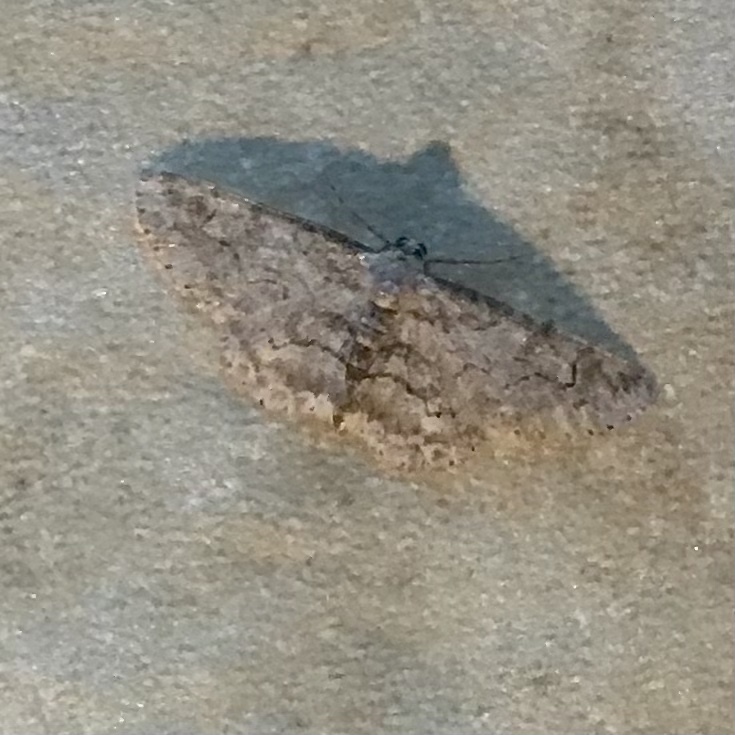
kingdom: Animalia
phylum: Arthropoda
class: Insecta
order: Lepidoptera
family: Geometridae
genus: Iridopsis
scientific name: Iridopsis emasculatum
